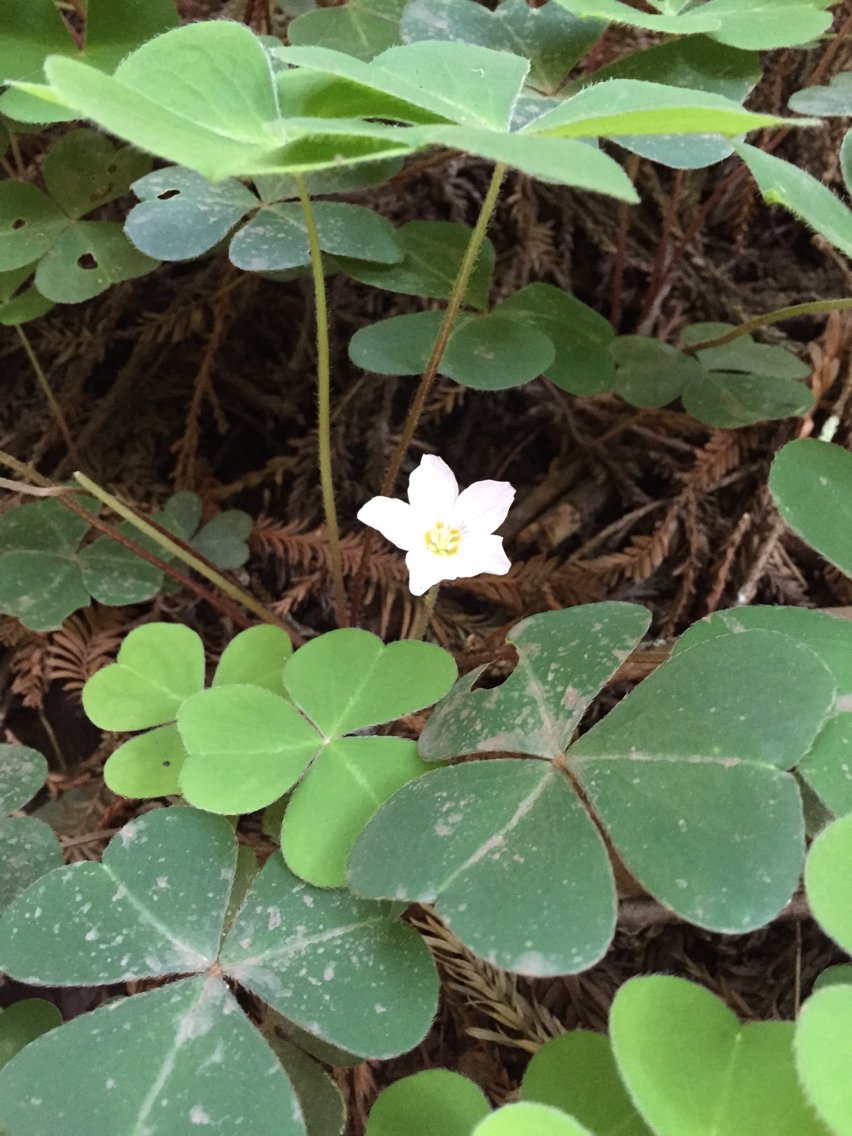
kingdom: Plantae
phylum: Tracheophyta
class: Magnoliopsida
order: Oxalidales
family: Oxalidaceae
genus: Oxalis
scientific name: Oxalis oregana
